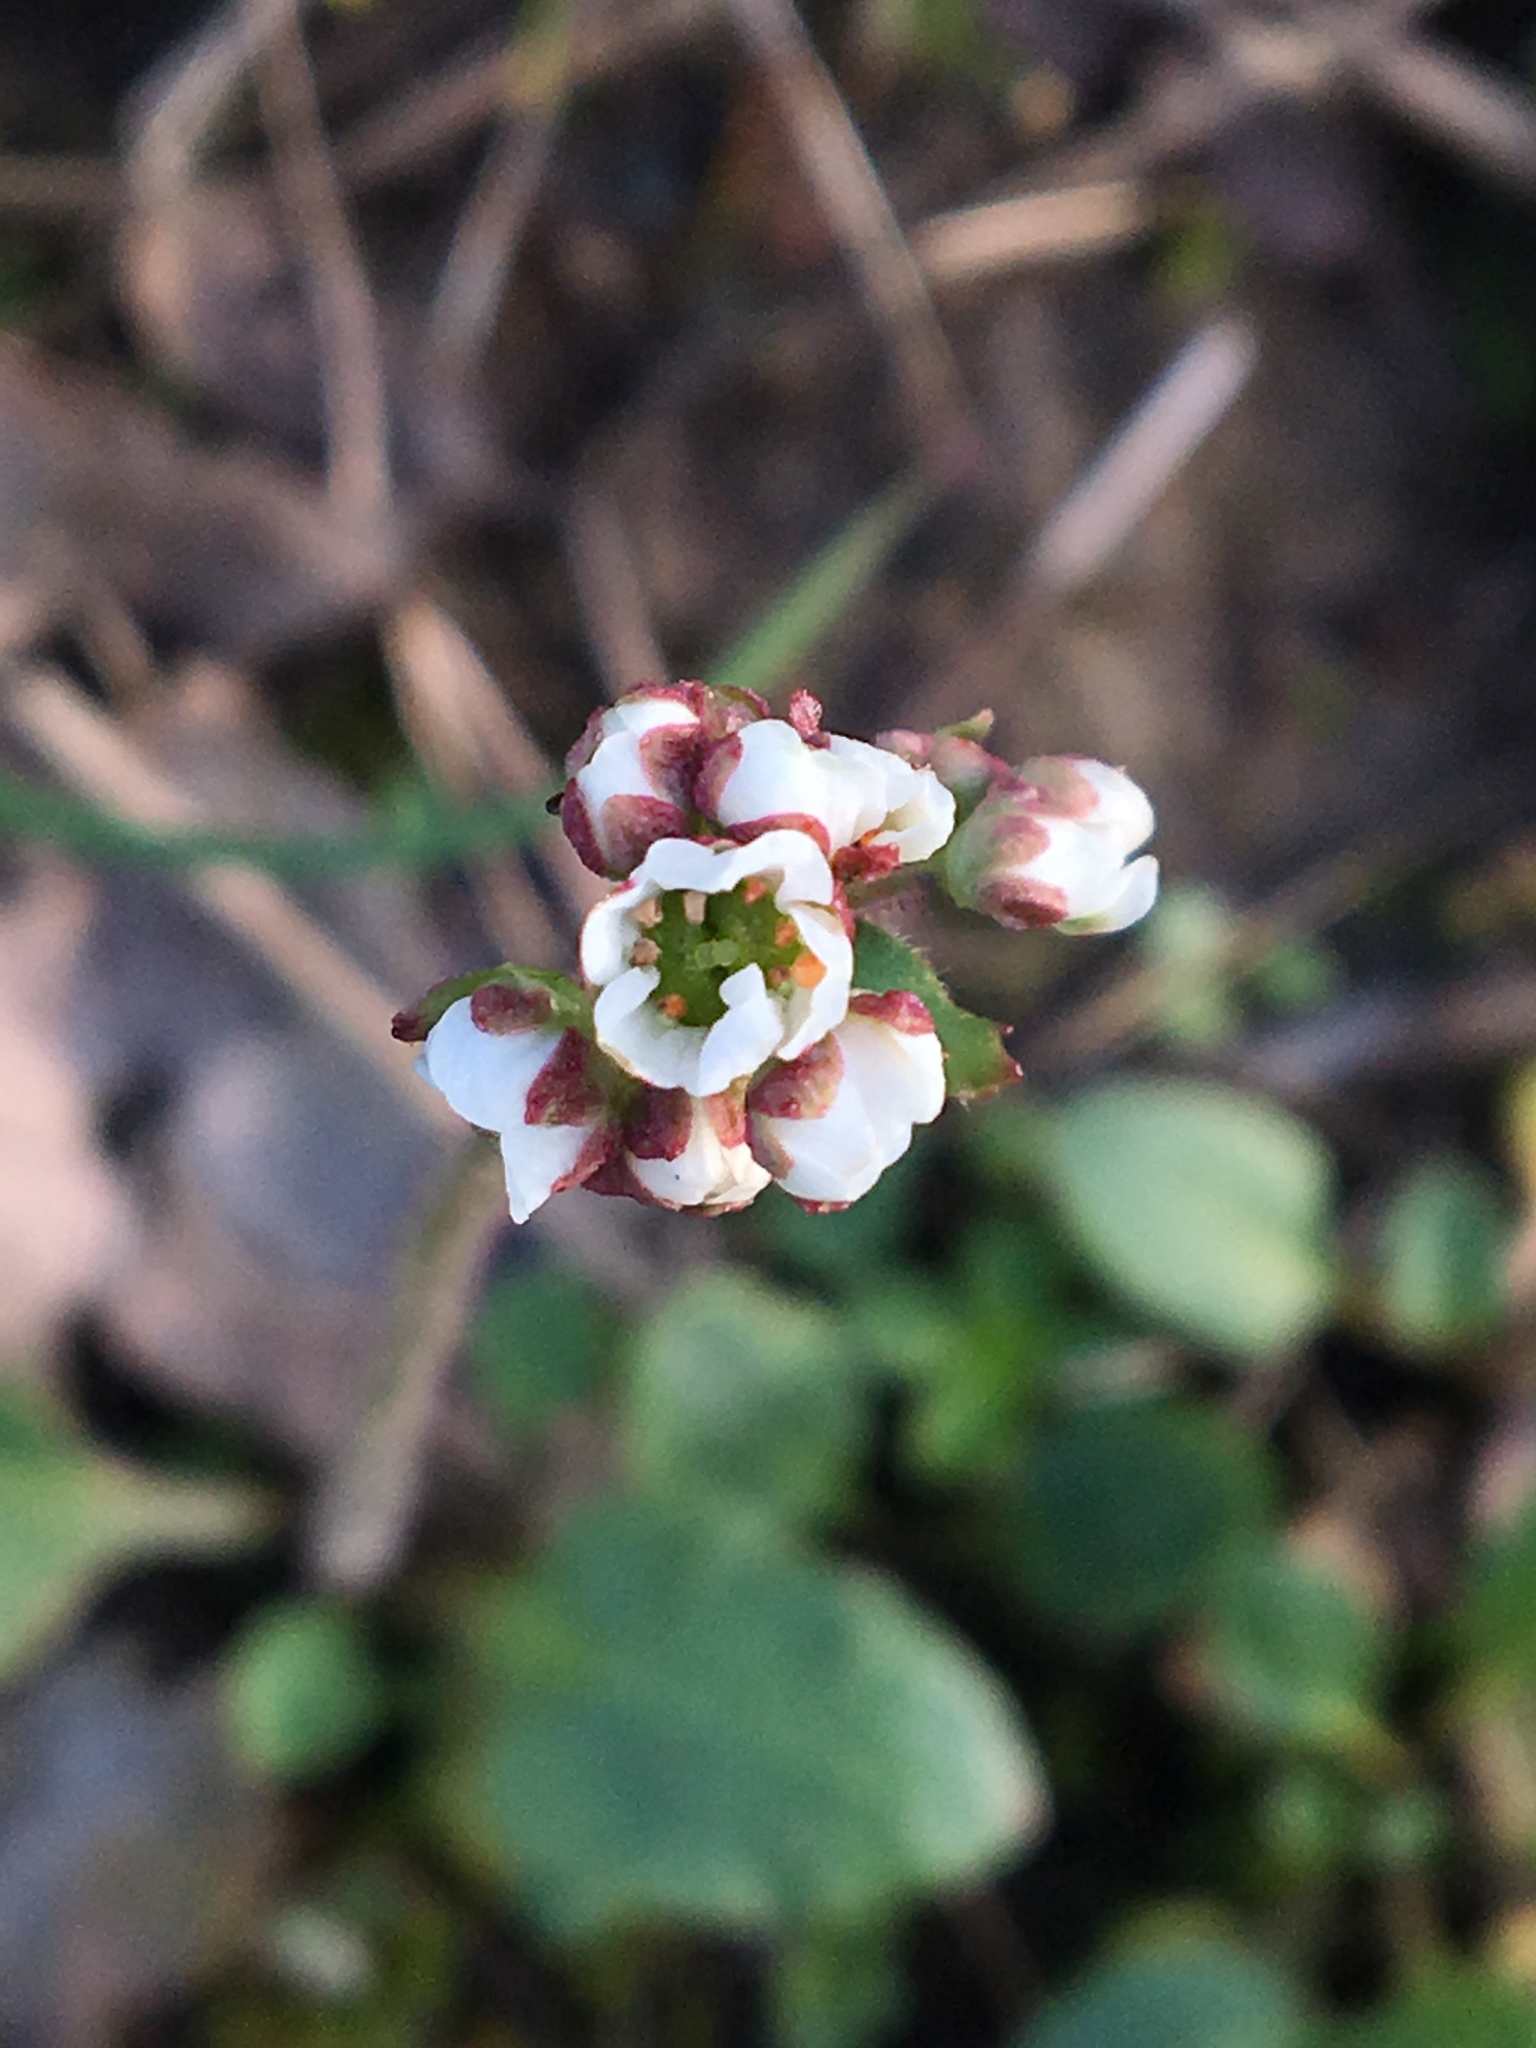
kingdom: Plantae
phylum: Tracheophyta
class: Magnoliopsida
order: Saxifragales
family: Saxifragaceae
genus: Micranthes
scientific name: Micranthes californica
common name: California saxifrage
